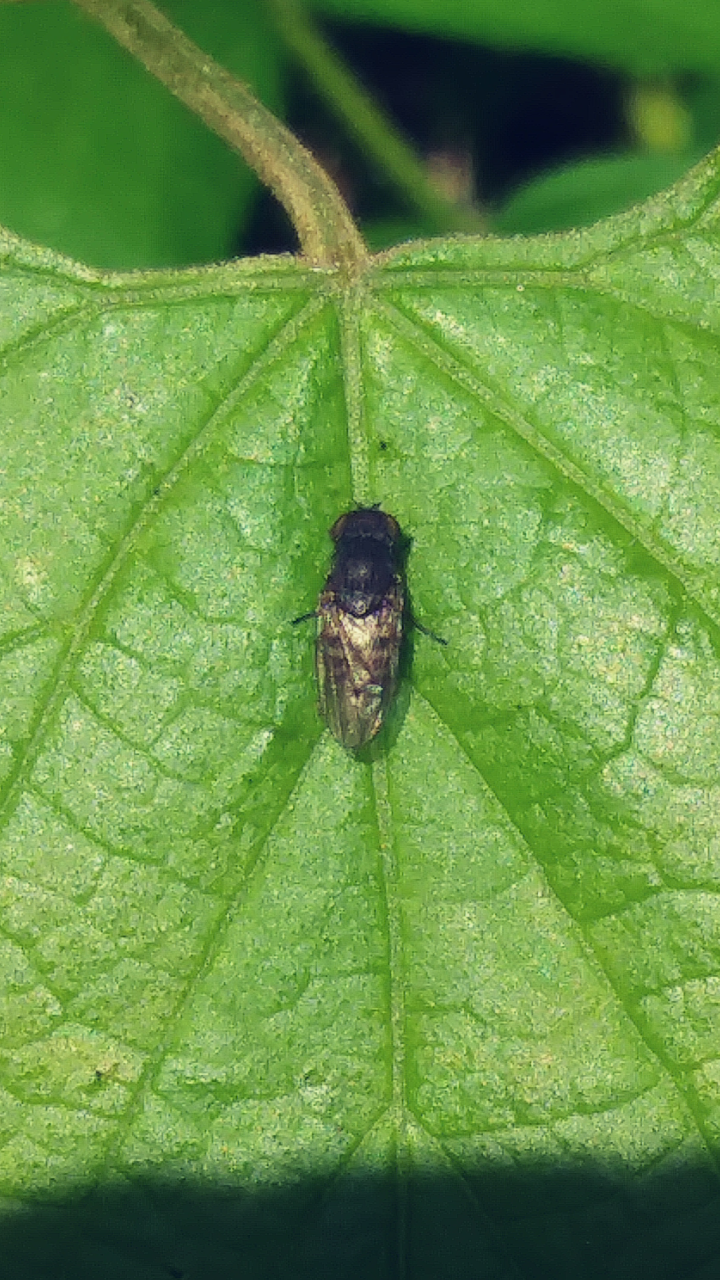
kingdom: Animalia
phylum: Arthropoda
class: Insecta
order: Lepidoptera
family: Lycaenidae
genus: Elkalyce
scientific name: Elkalyce comyntas
